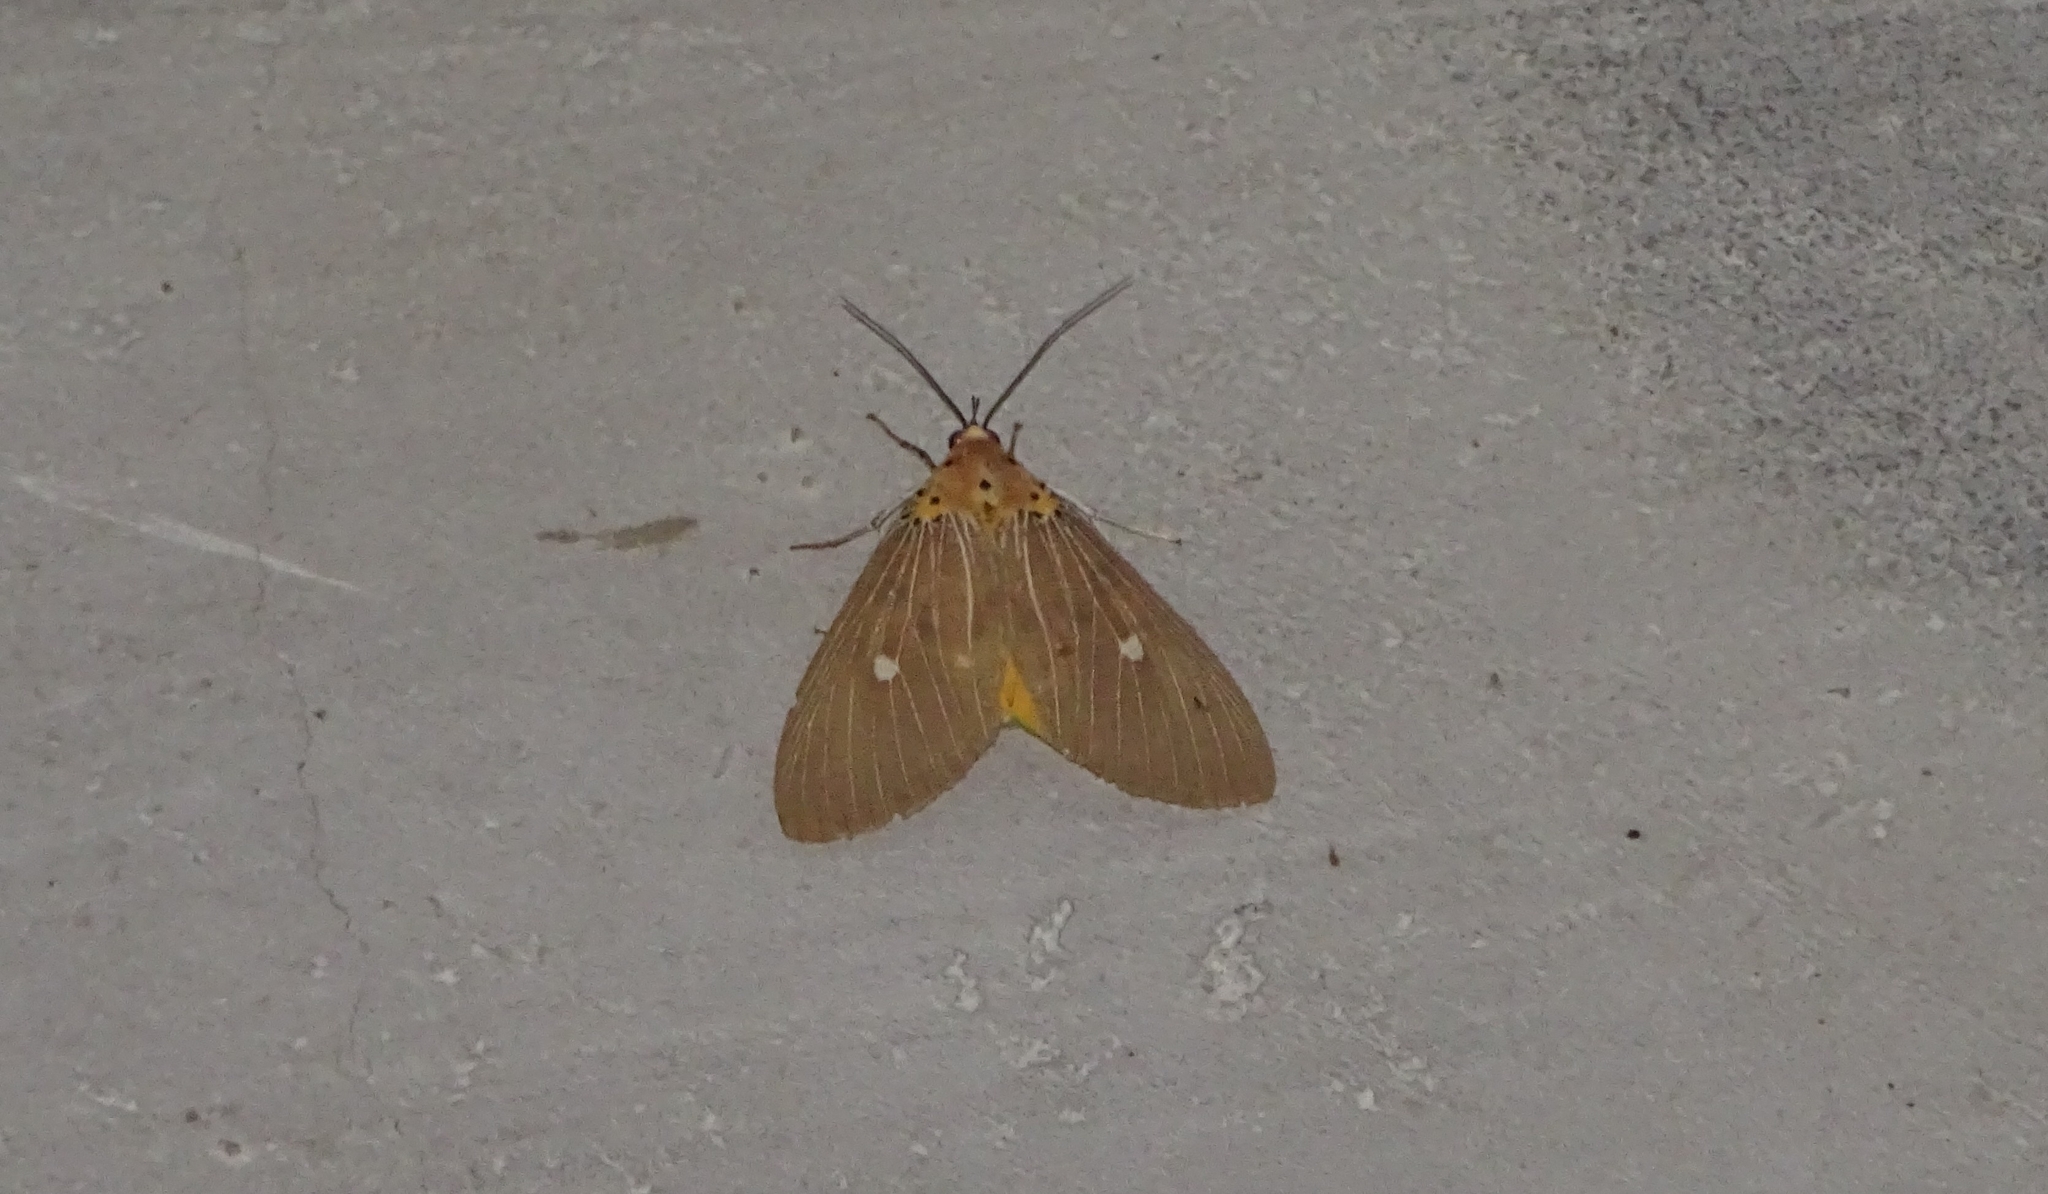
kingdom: Animalia
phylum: Arthropoda
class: Insecta
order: Lepidoptera
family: Erebidae
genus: Asota
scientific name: Asota caricae
